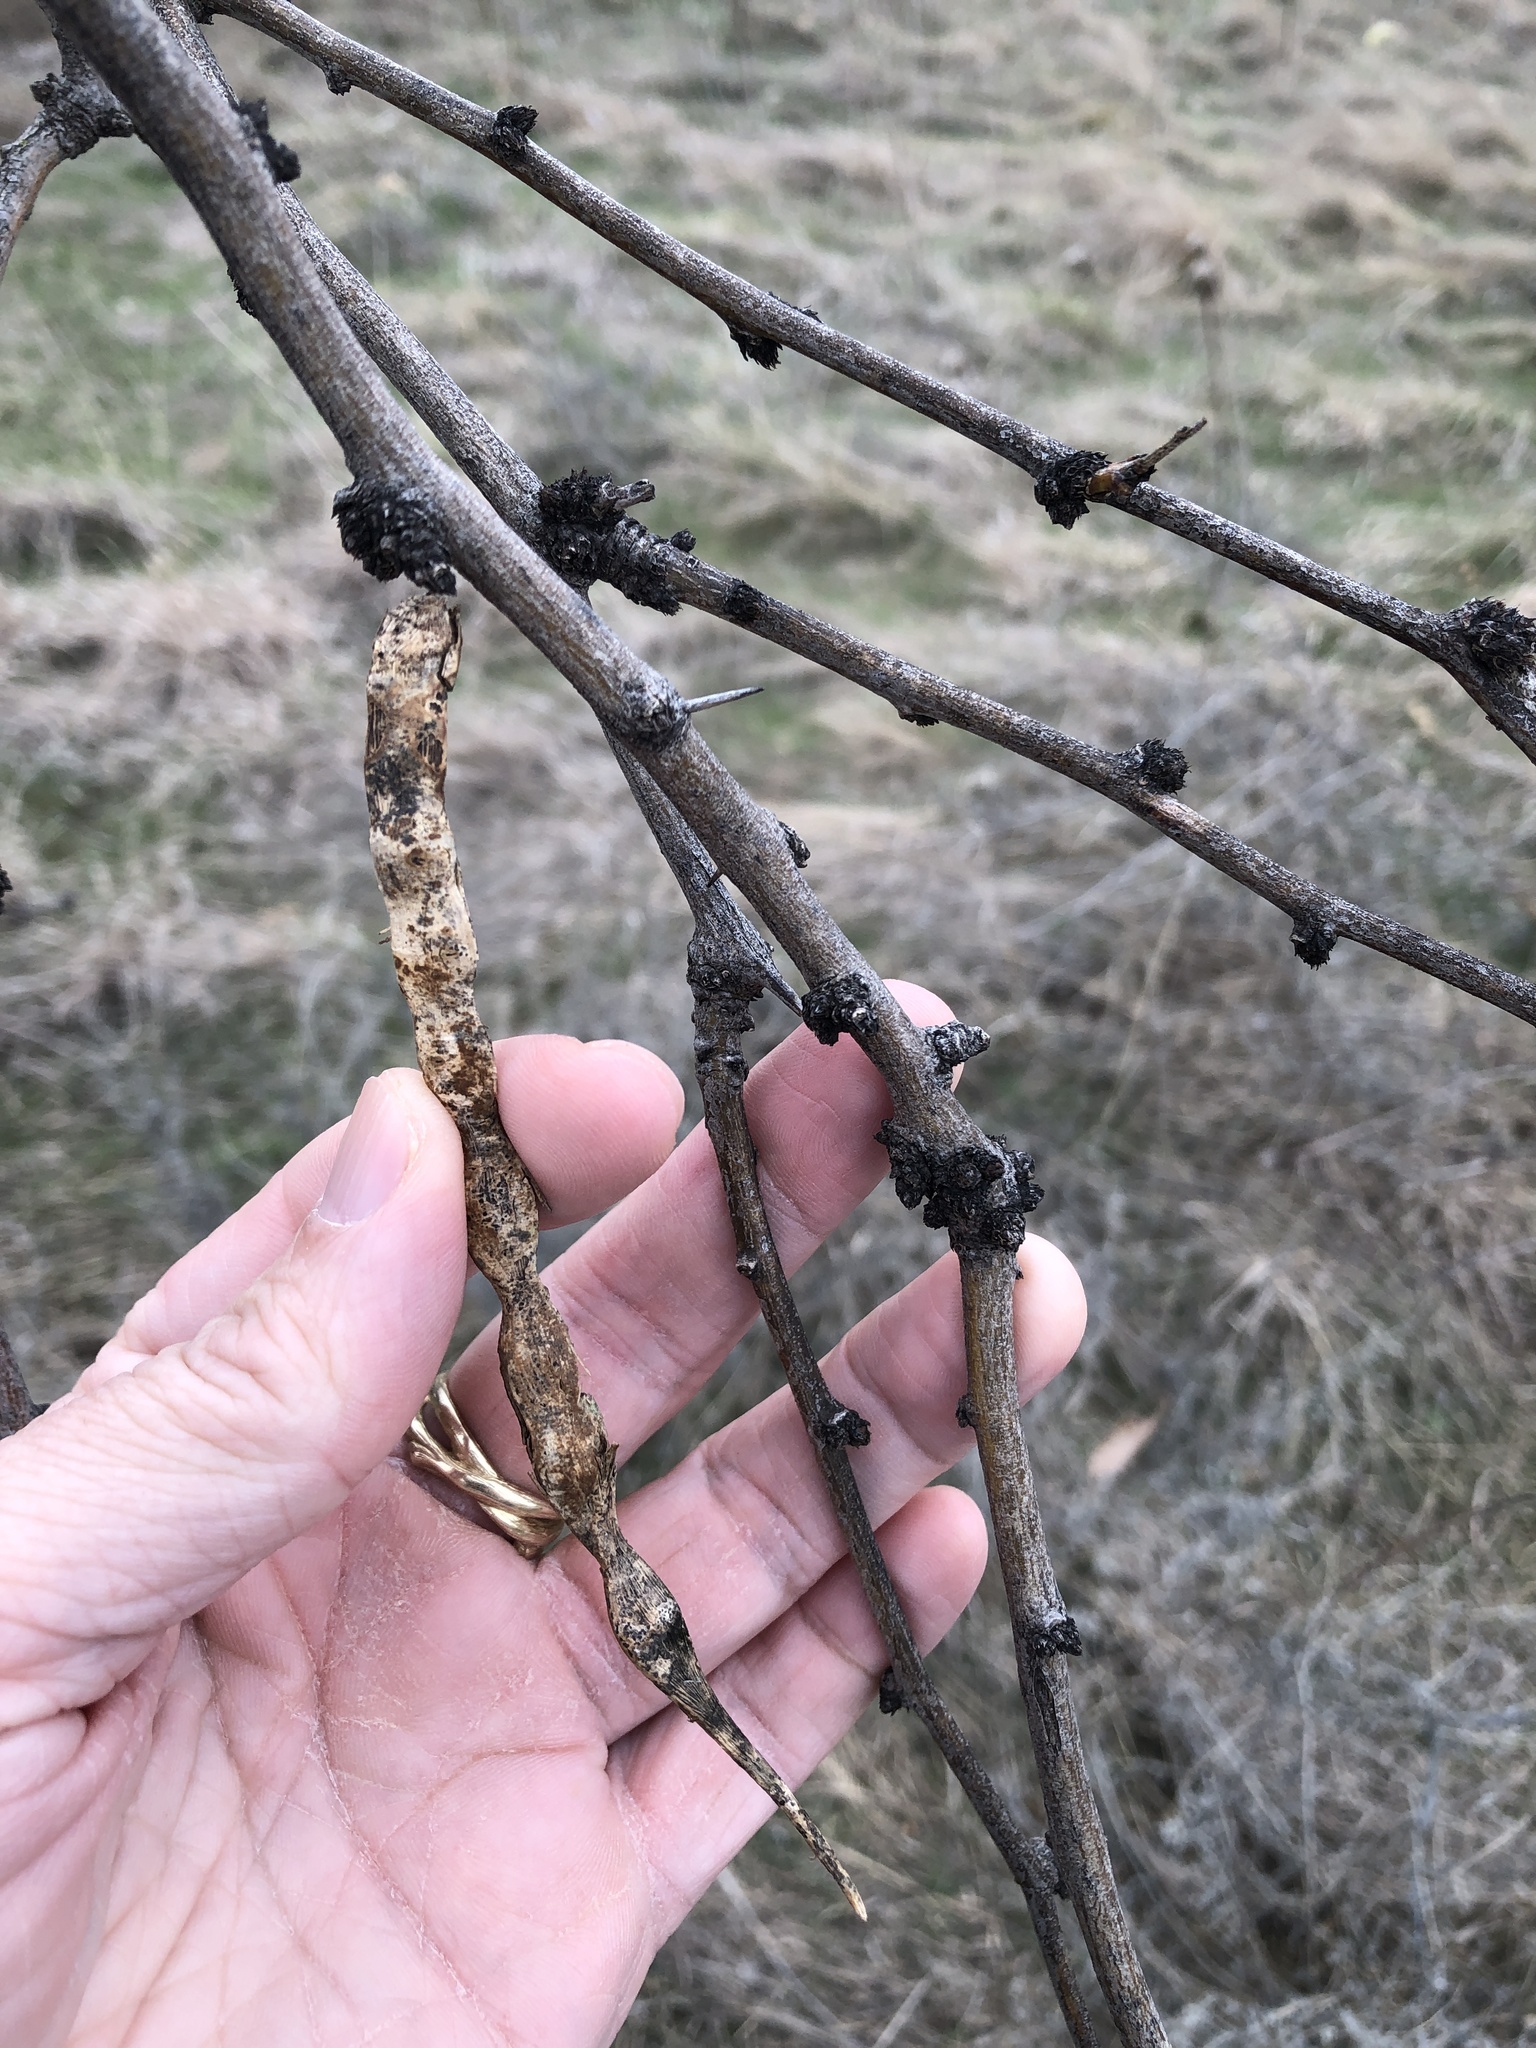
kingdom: Plantae
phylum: Tracheophyta
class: Magnoliopsida
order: Fabales
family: Fabaceae
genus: Prosopis
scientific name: Prosopis glandulosa
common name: Honey mesquite
